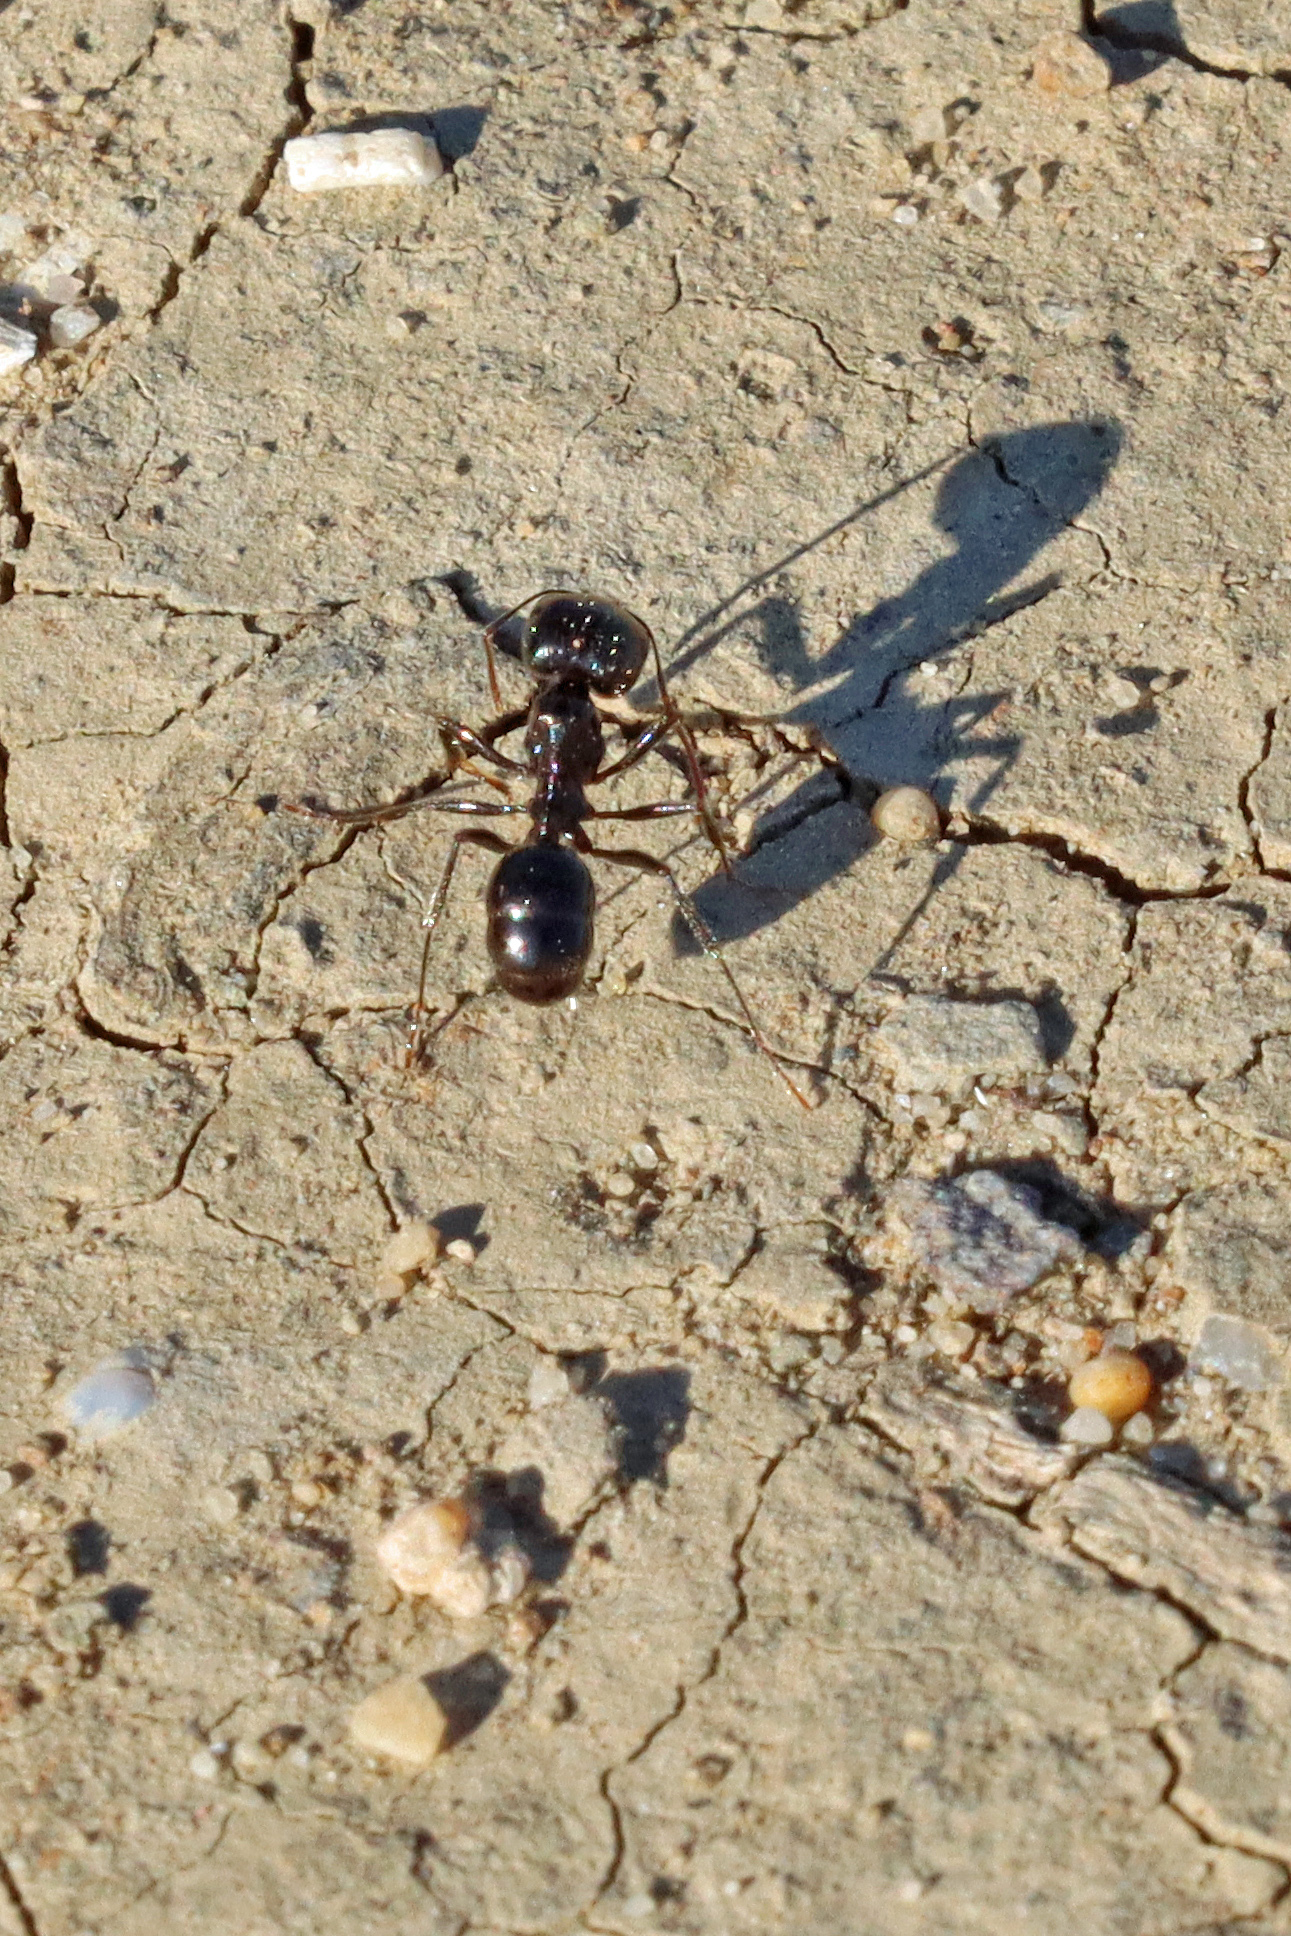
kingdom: Animalia
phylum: Arthropoda
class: Insecta
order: Hymenoptera
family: Formicidae
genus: Messor
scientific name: Messor
